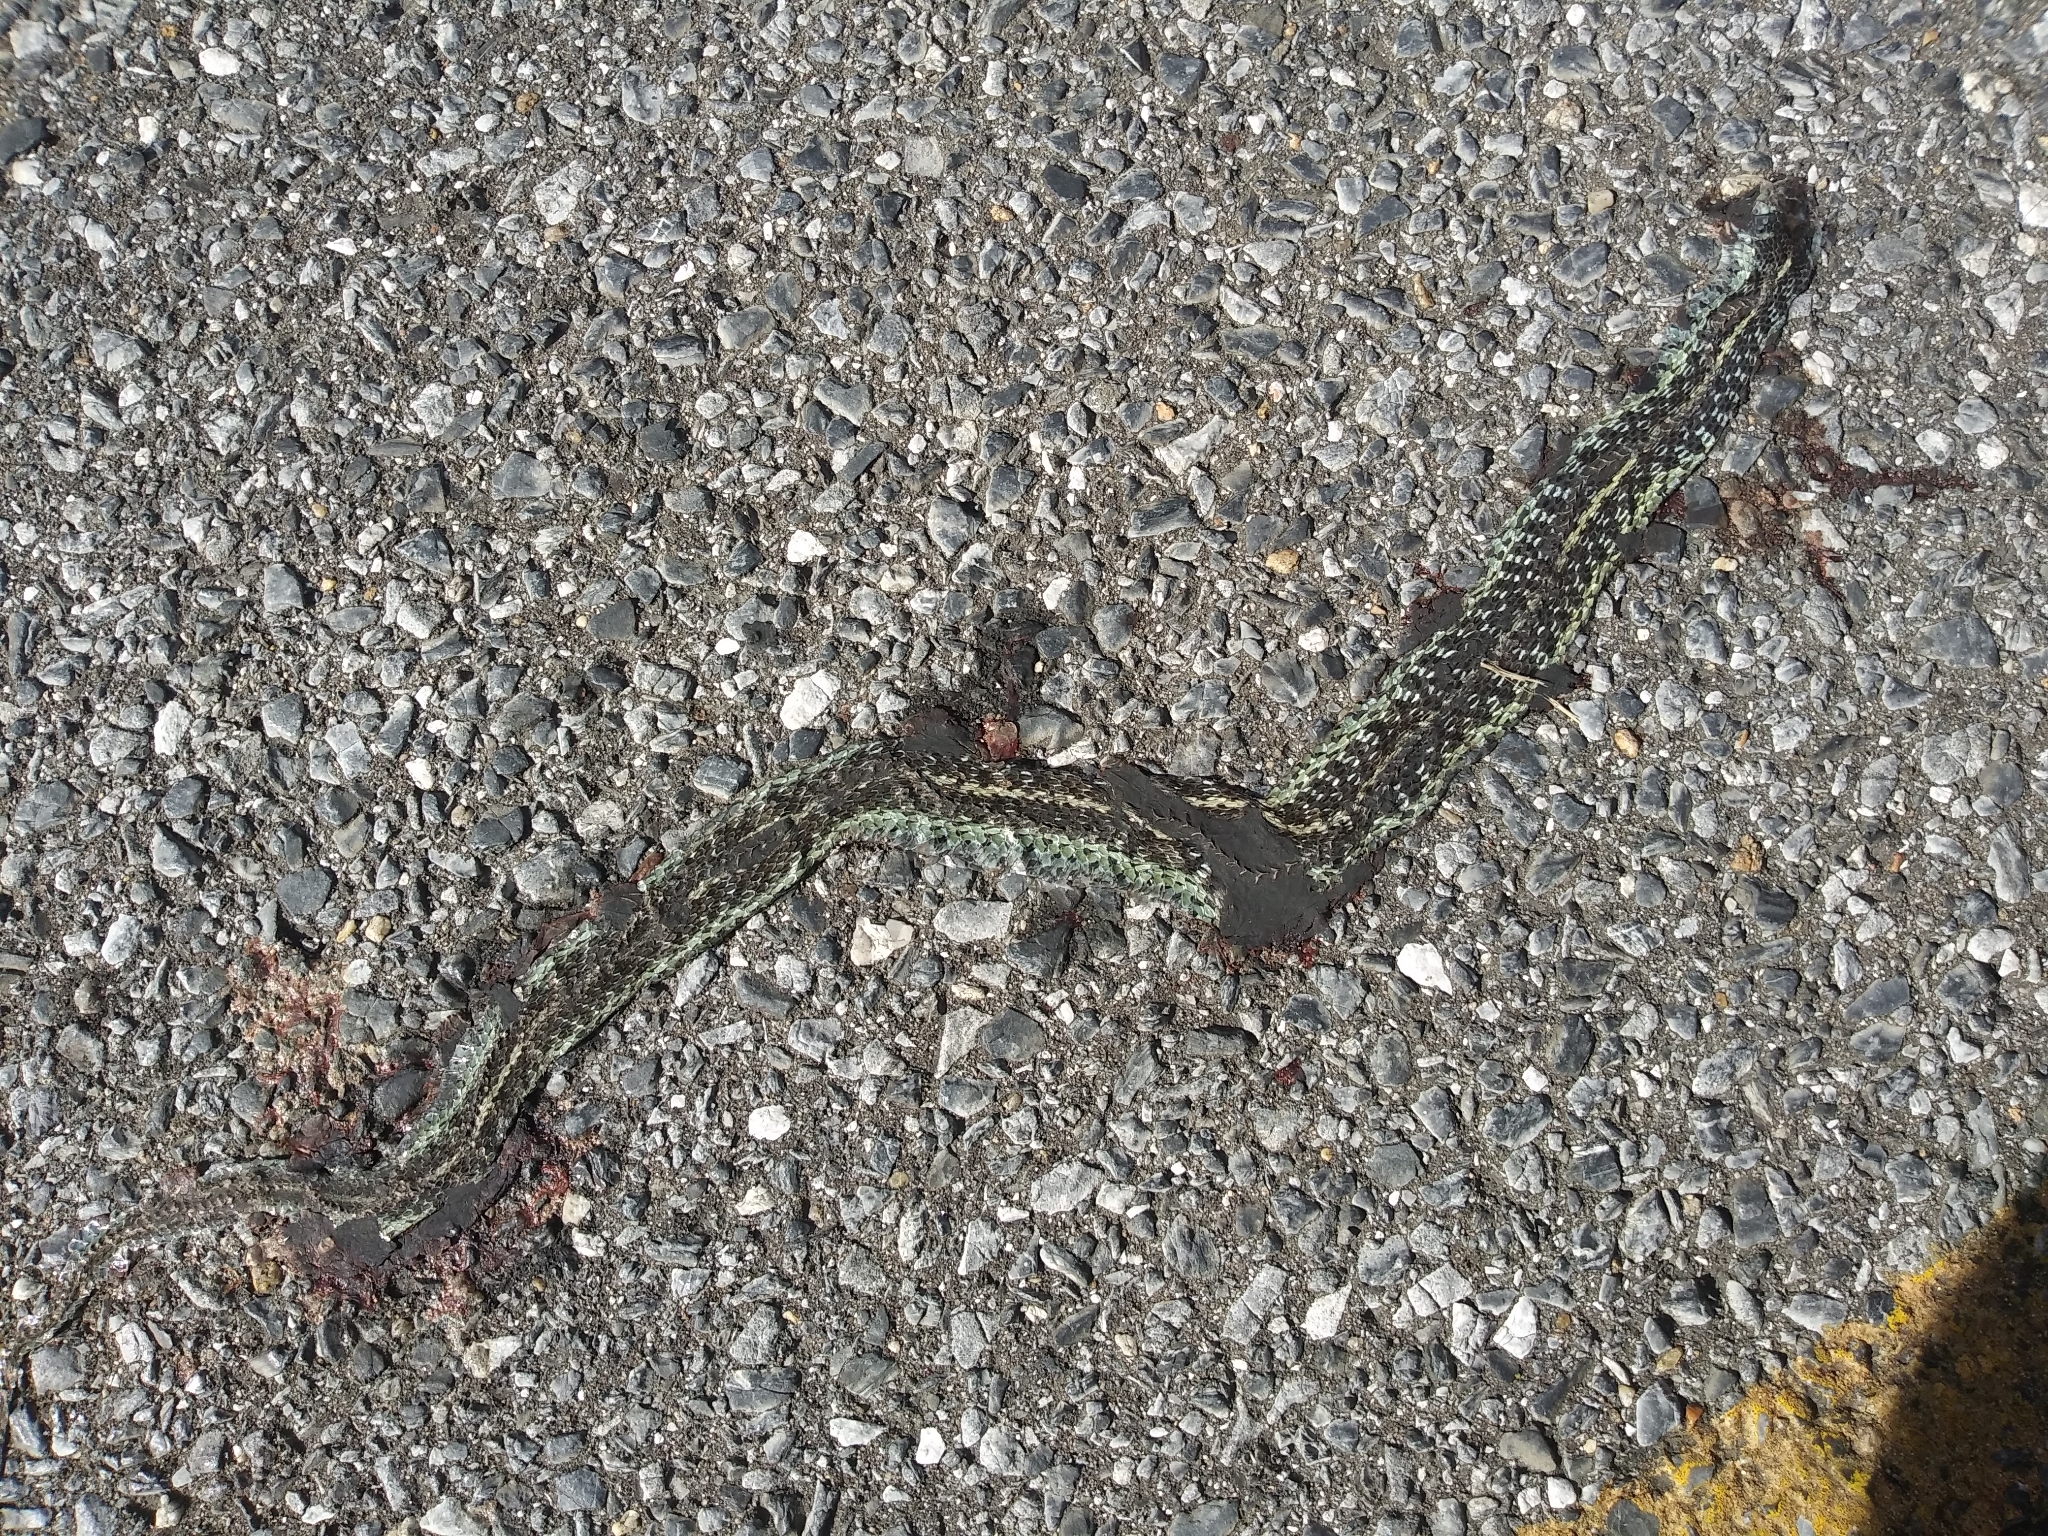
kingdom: Animalia
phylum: Chordata
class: Squamata
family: Colubridae
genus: Thamnophis
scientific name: Thamnophis sirtalis
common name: Common garter snake
